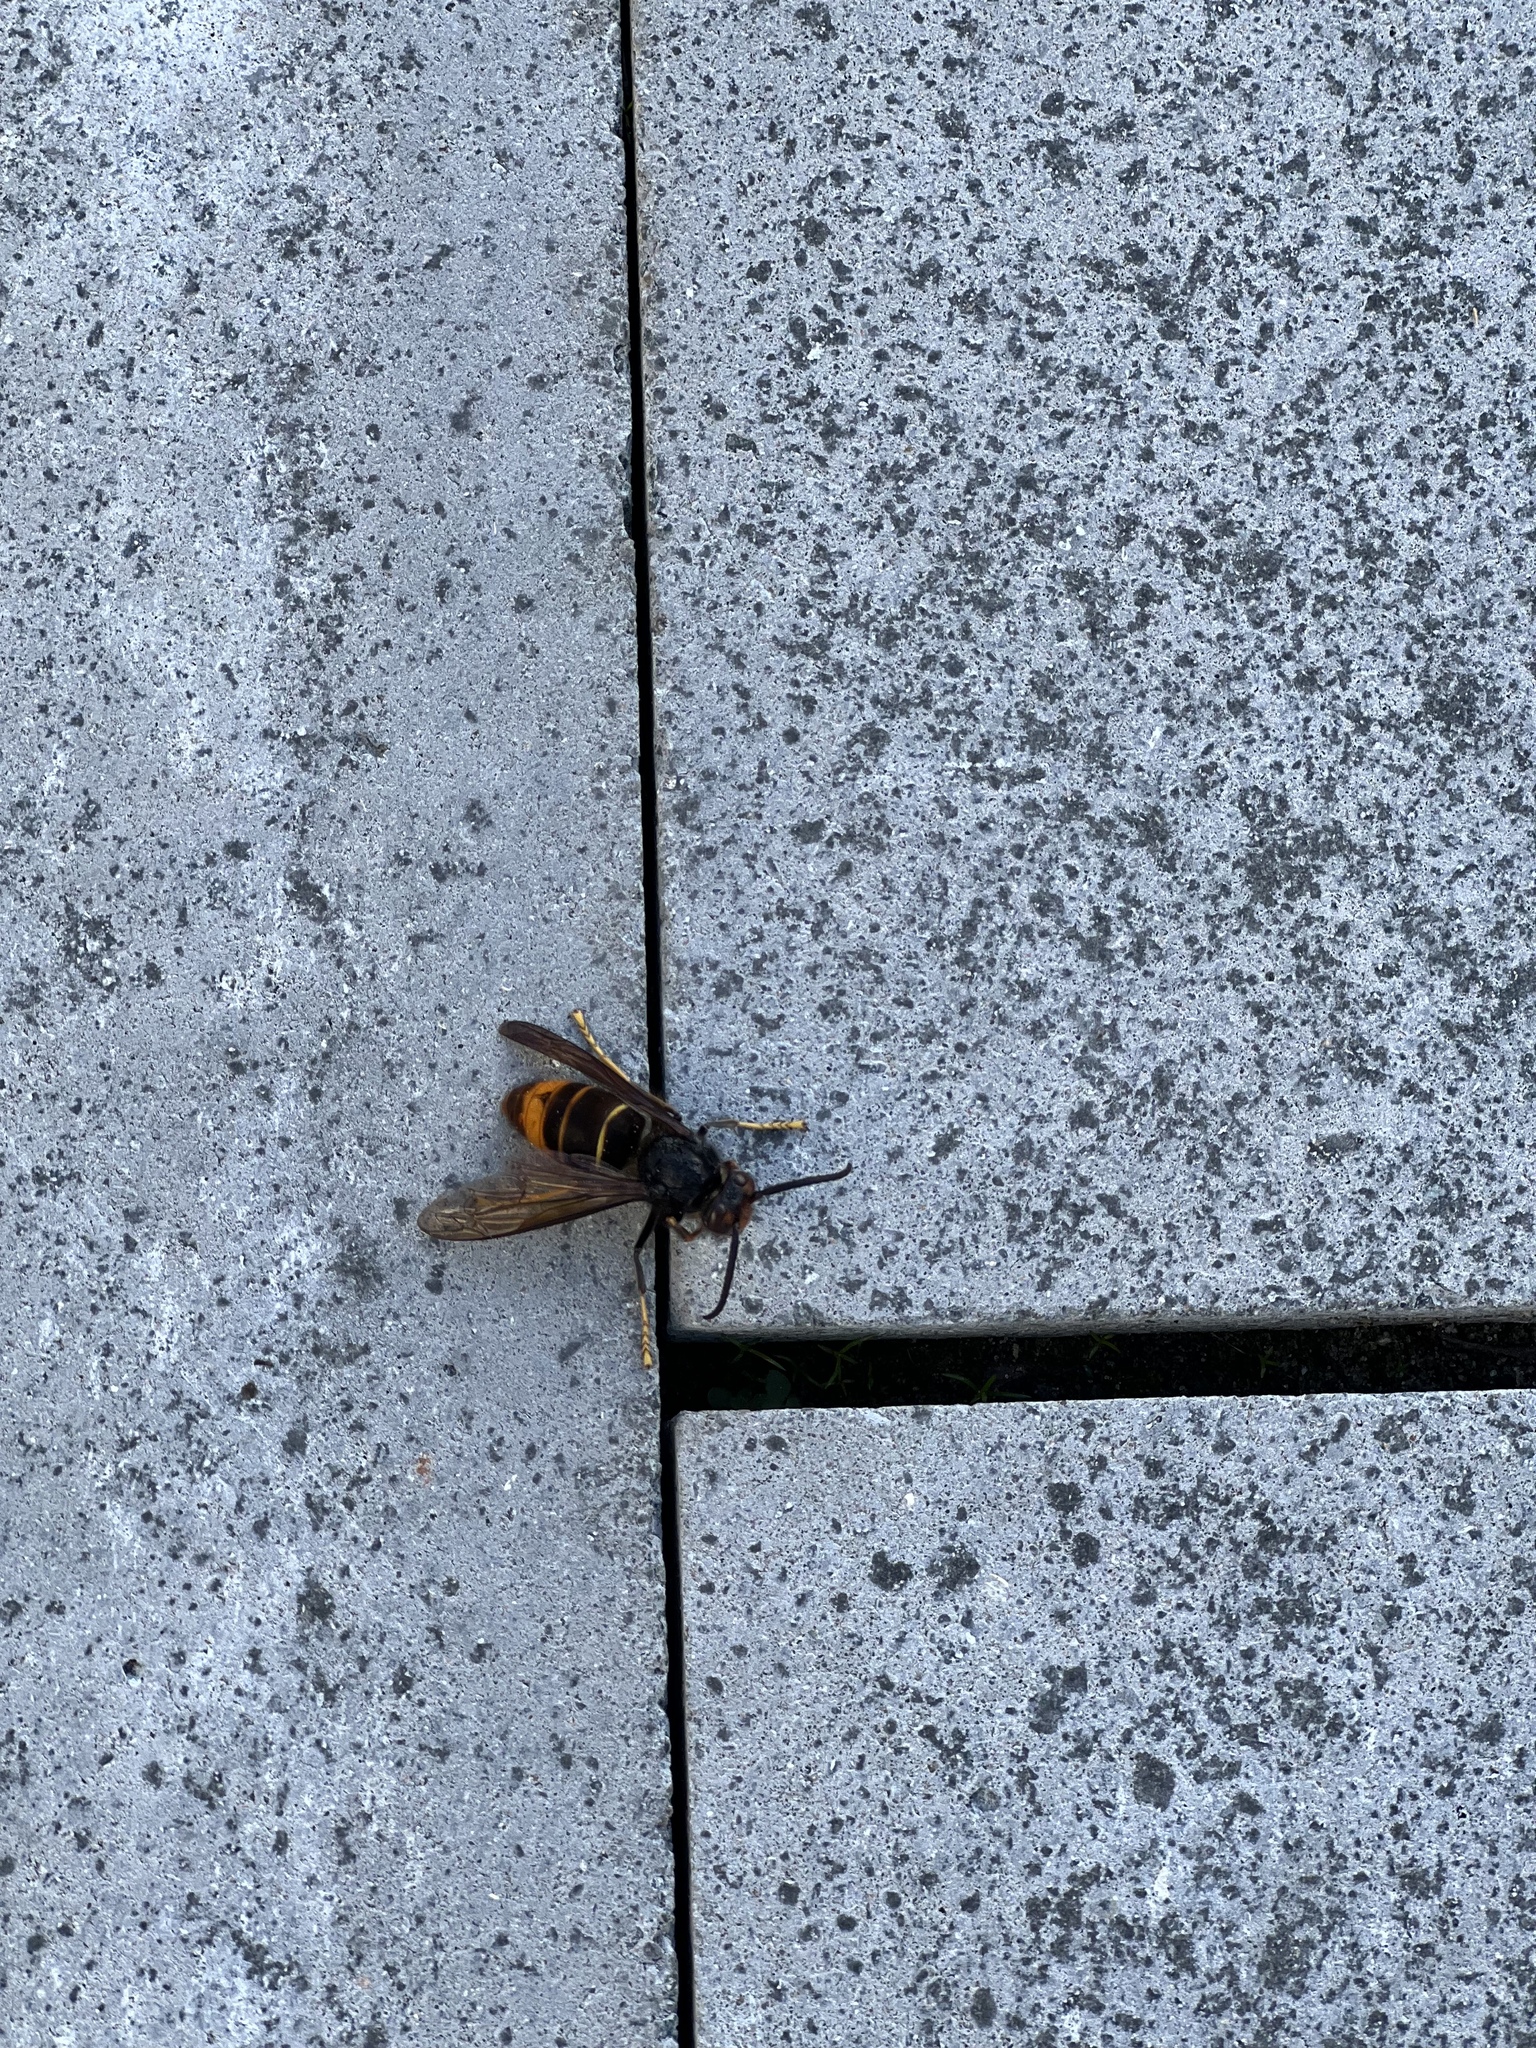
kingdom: Animalia
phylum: Arthropoda
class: Insecta
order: Hymenoptera
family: Vespidae
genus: Vespa
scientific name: Vespa velutina
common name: Asian hornet
